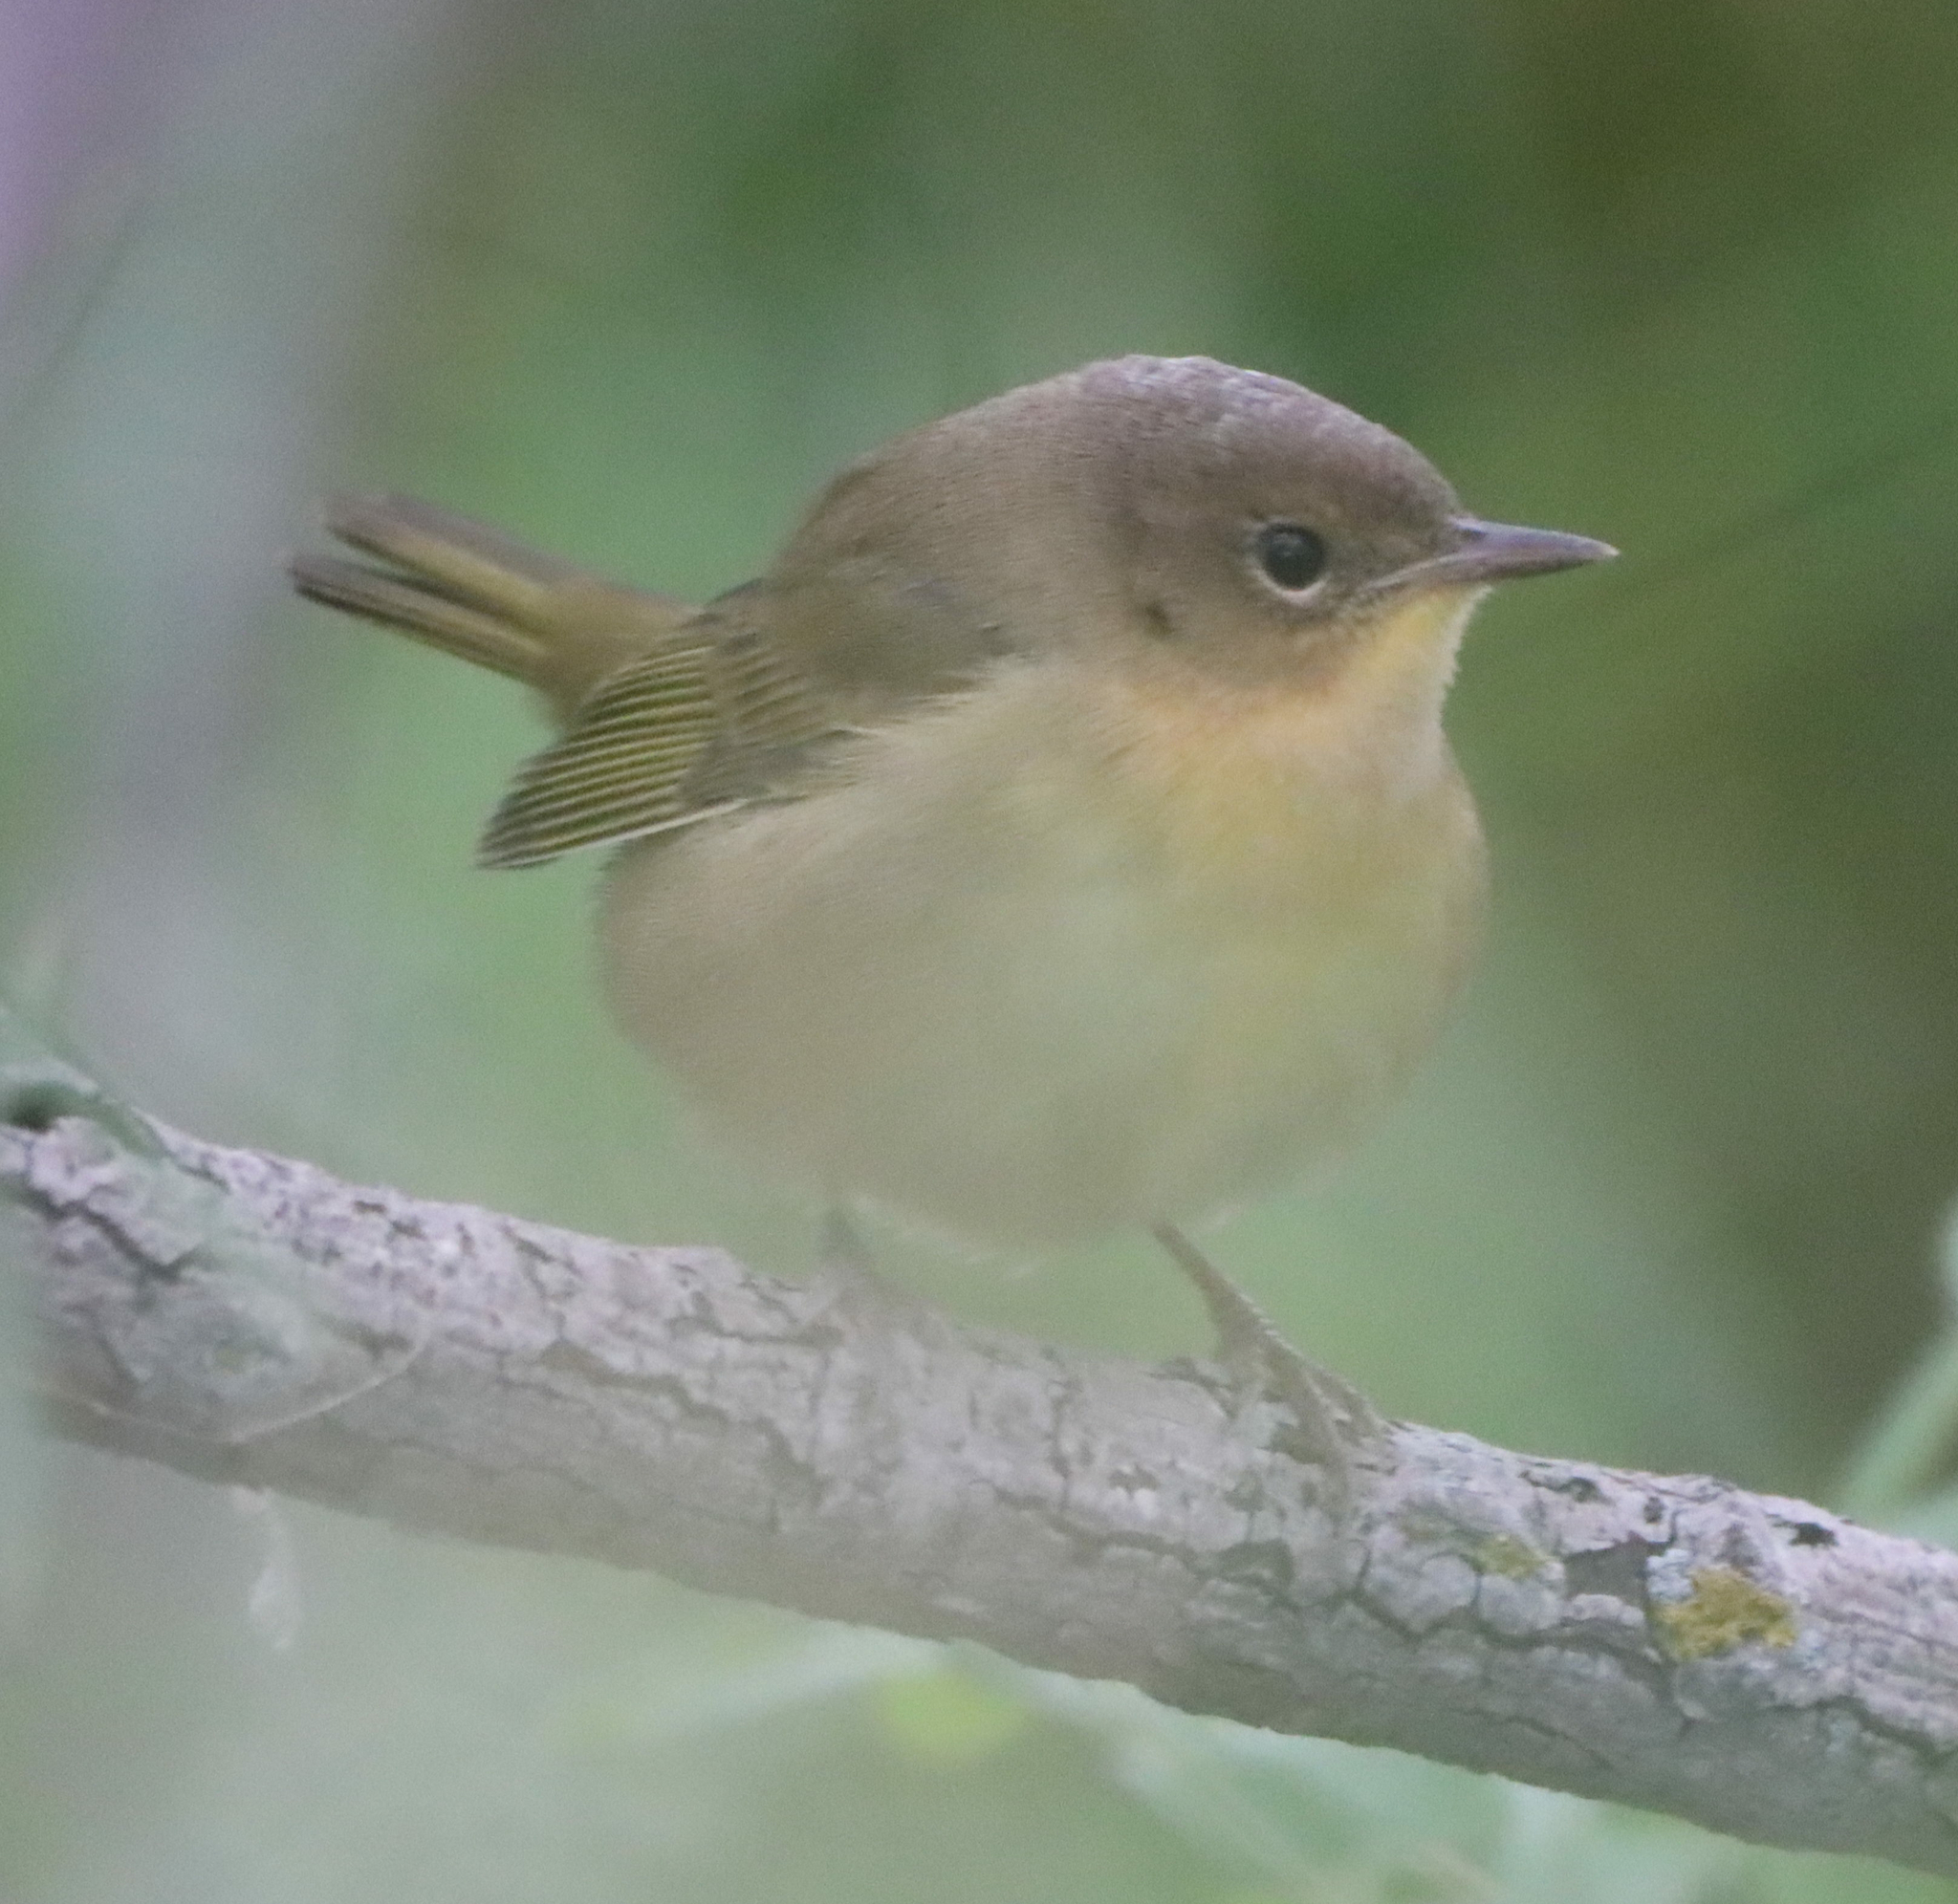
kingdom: Animalia
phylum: Chordata
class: Aves
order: Passeriformes
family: Parulidae
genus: Geothlypis
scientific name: Geothlypis trichas
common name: Common yellowthroat
